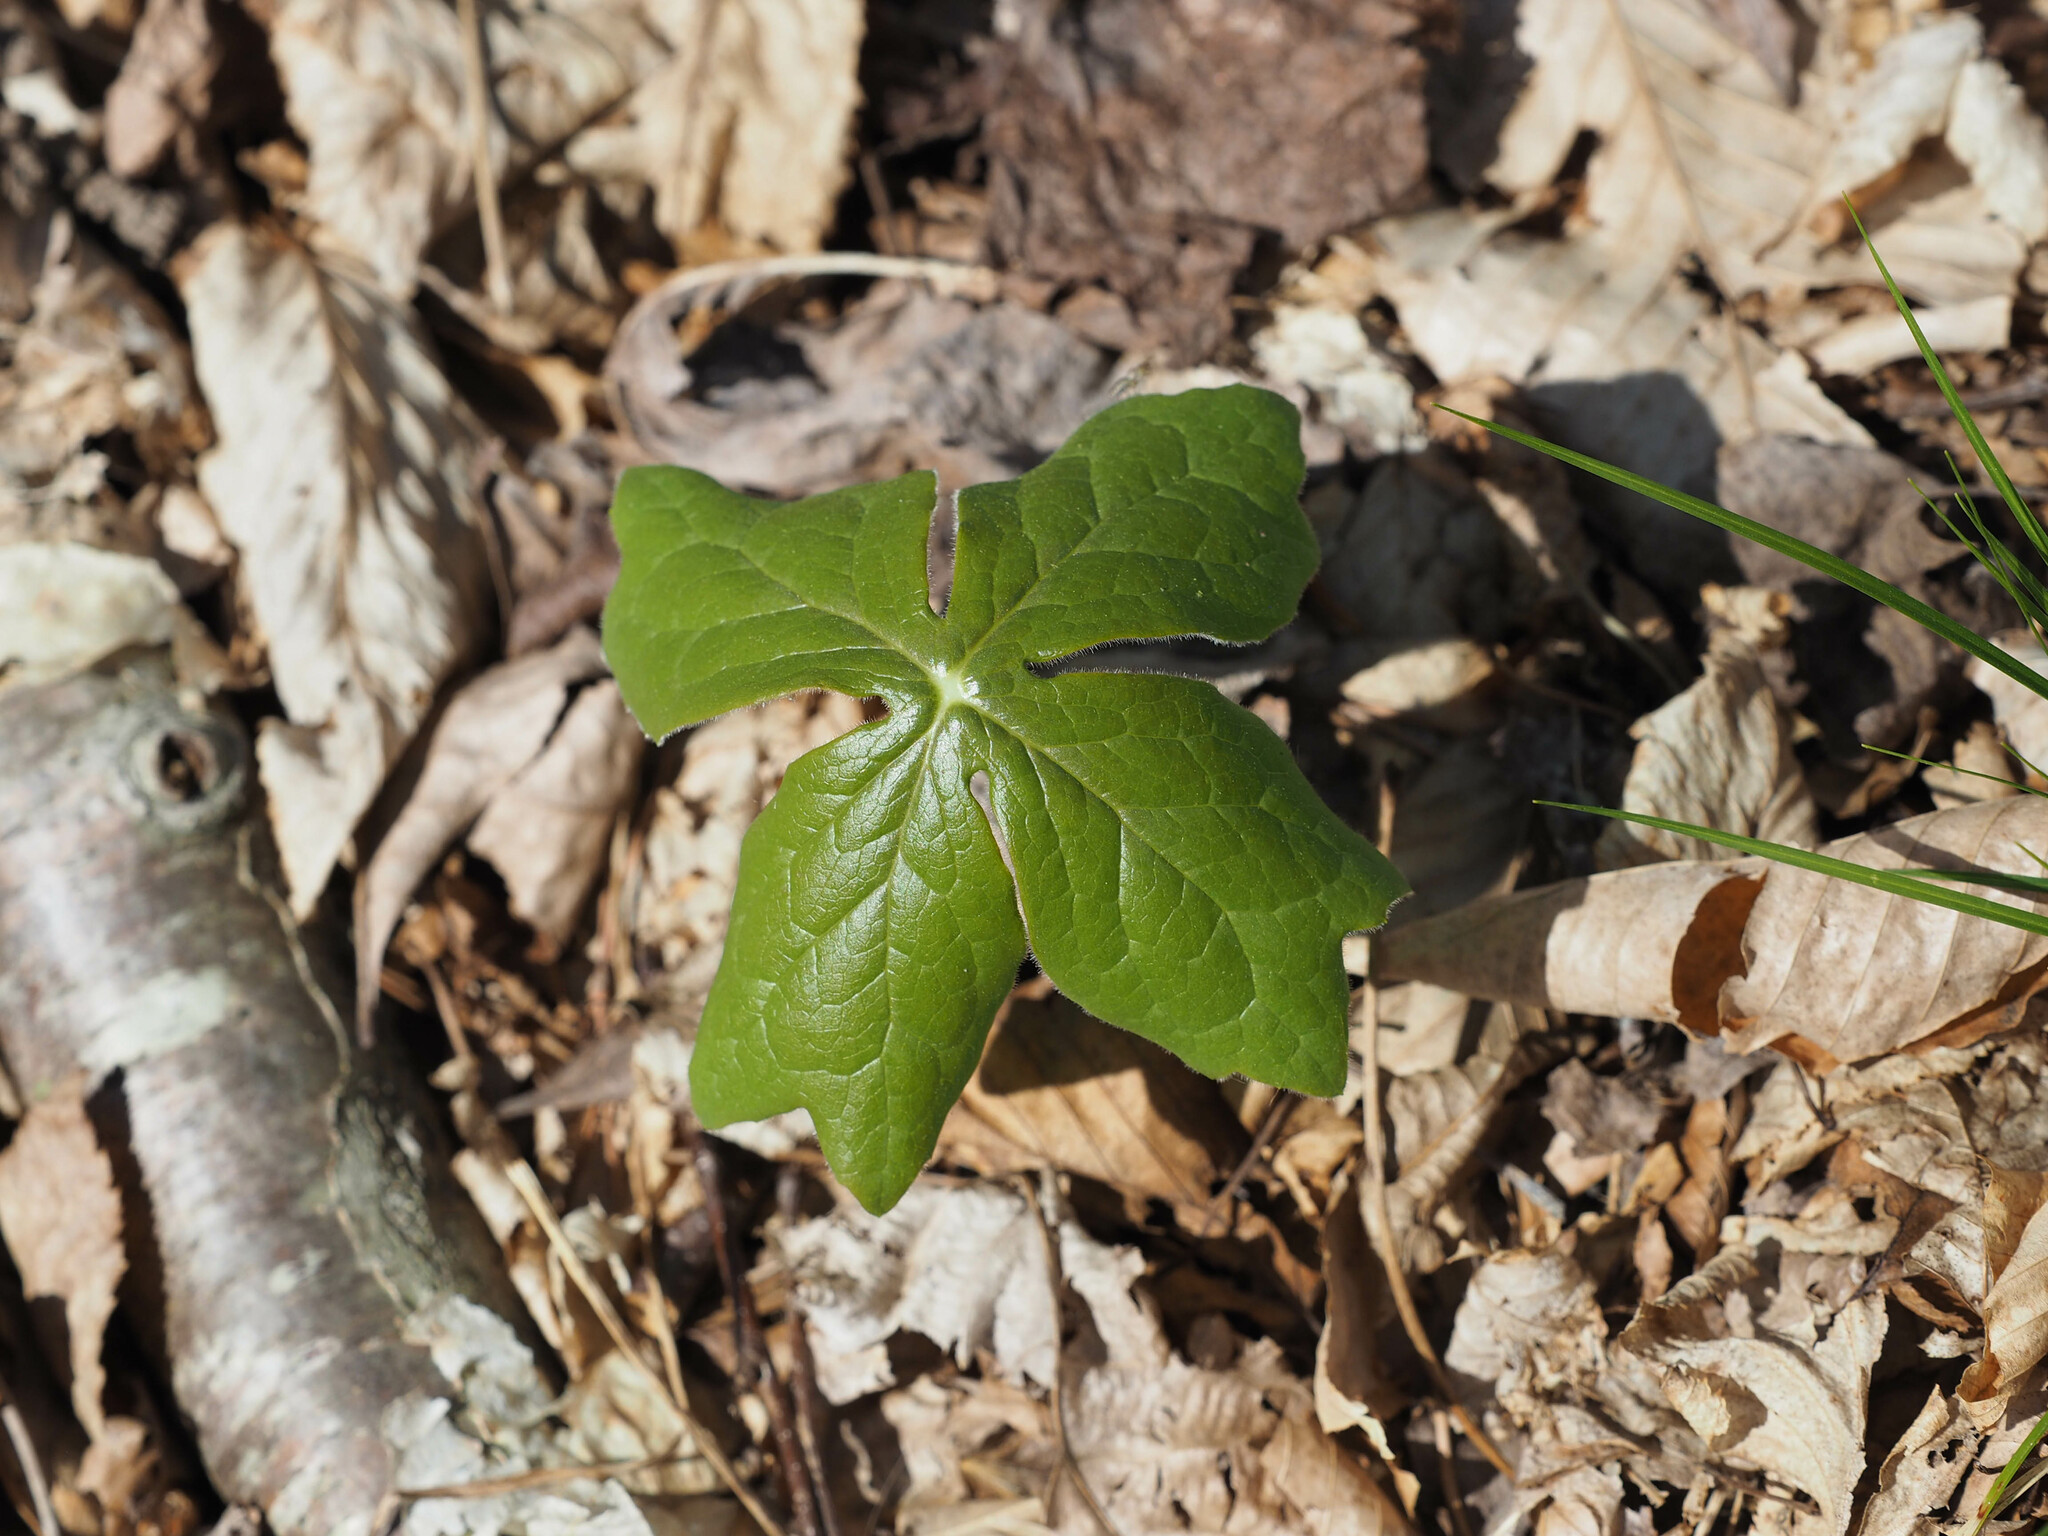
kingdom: Plantae
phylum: Tracheophyta
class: Magnoliopsida
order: Ranunculales
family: Berberidaceae
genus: Podophyllum
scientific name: Podophyllum peltatum
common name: Wild mandrake
